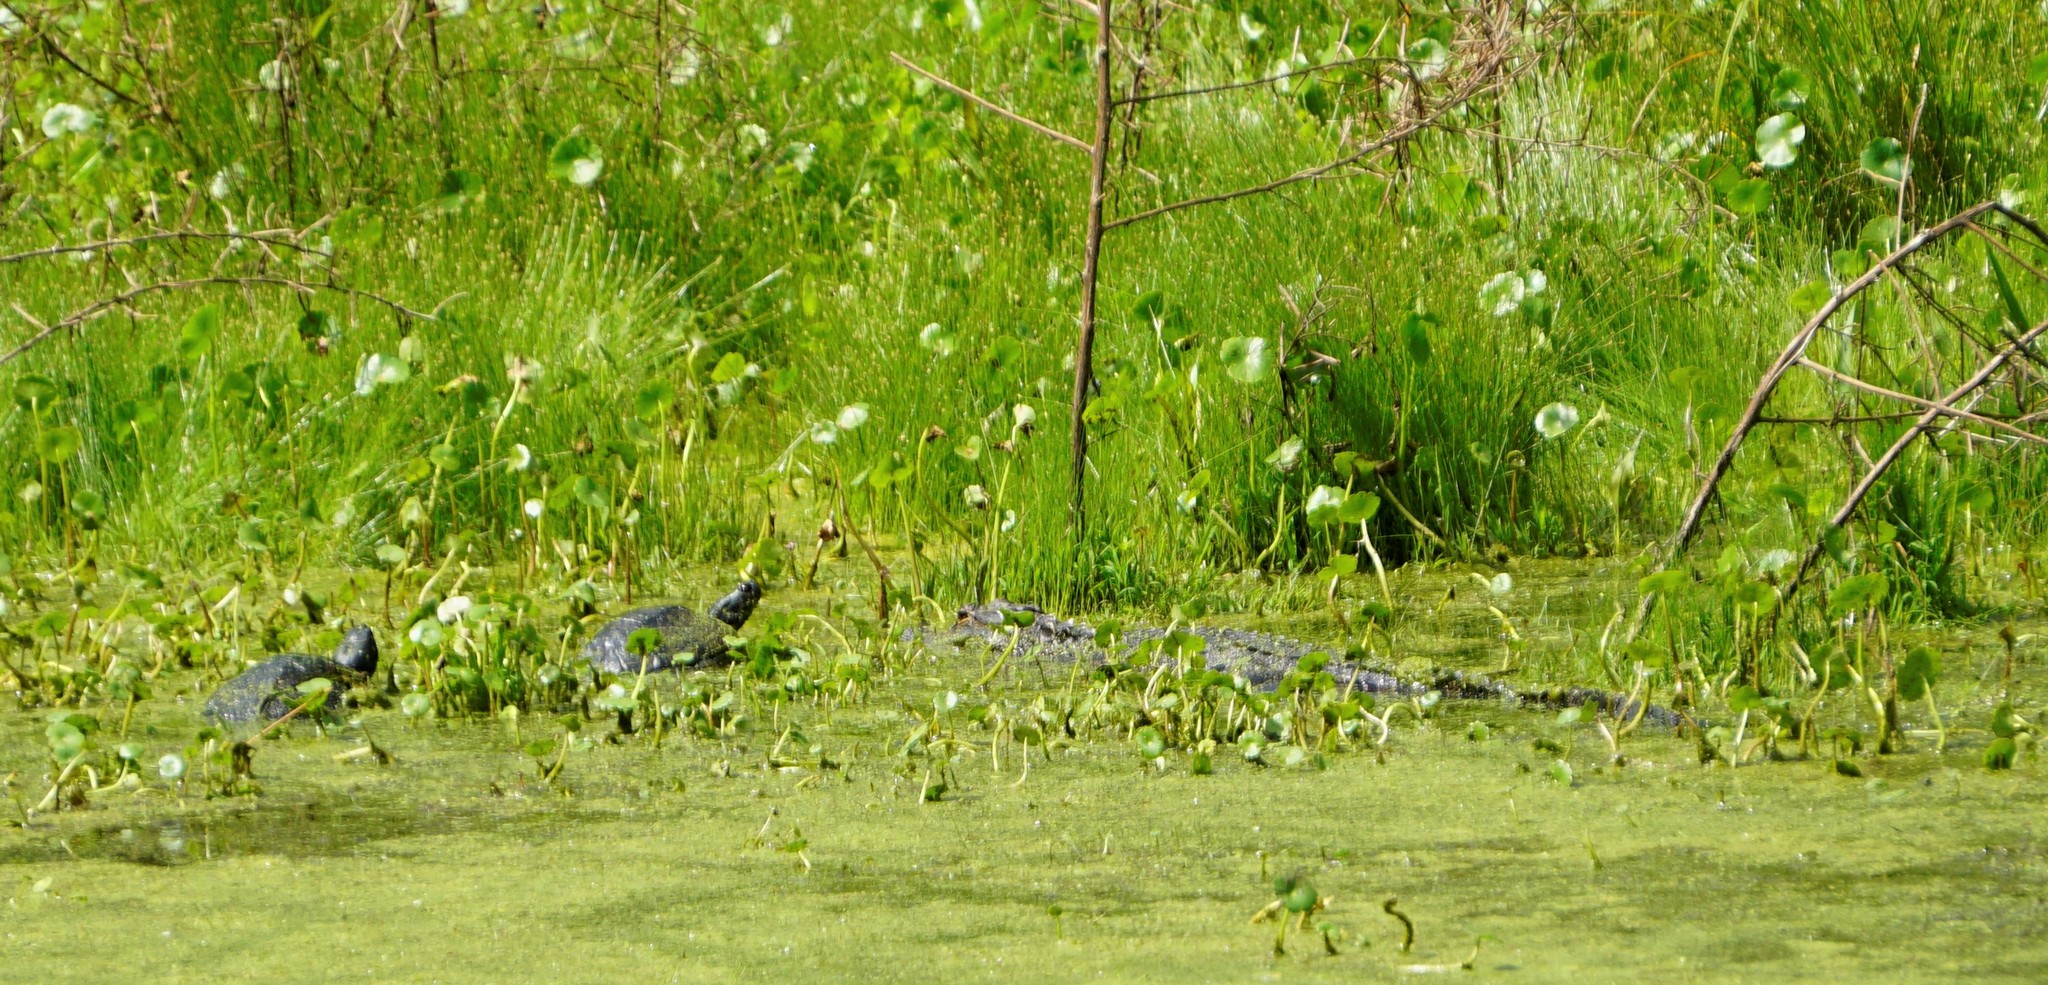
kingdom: Animalia
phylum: Chordata
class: Crocodylia
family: Alligatoridae
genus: Alligator
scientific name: Alligator mississippiensis
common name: American alligator
